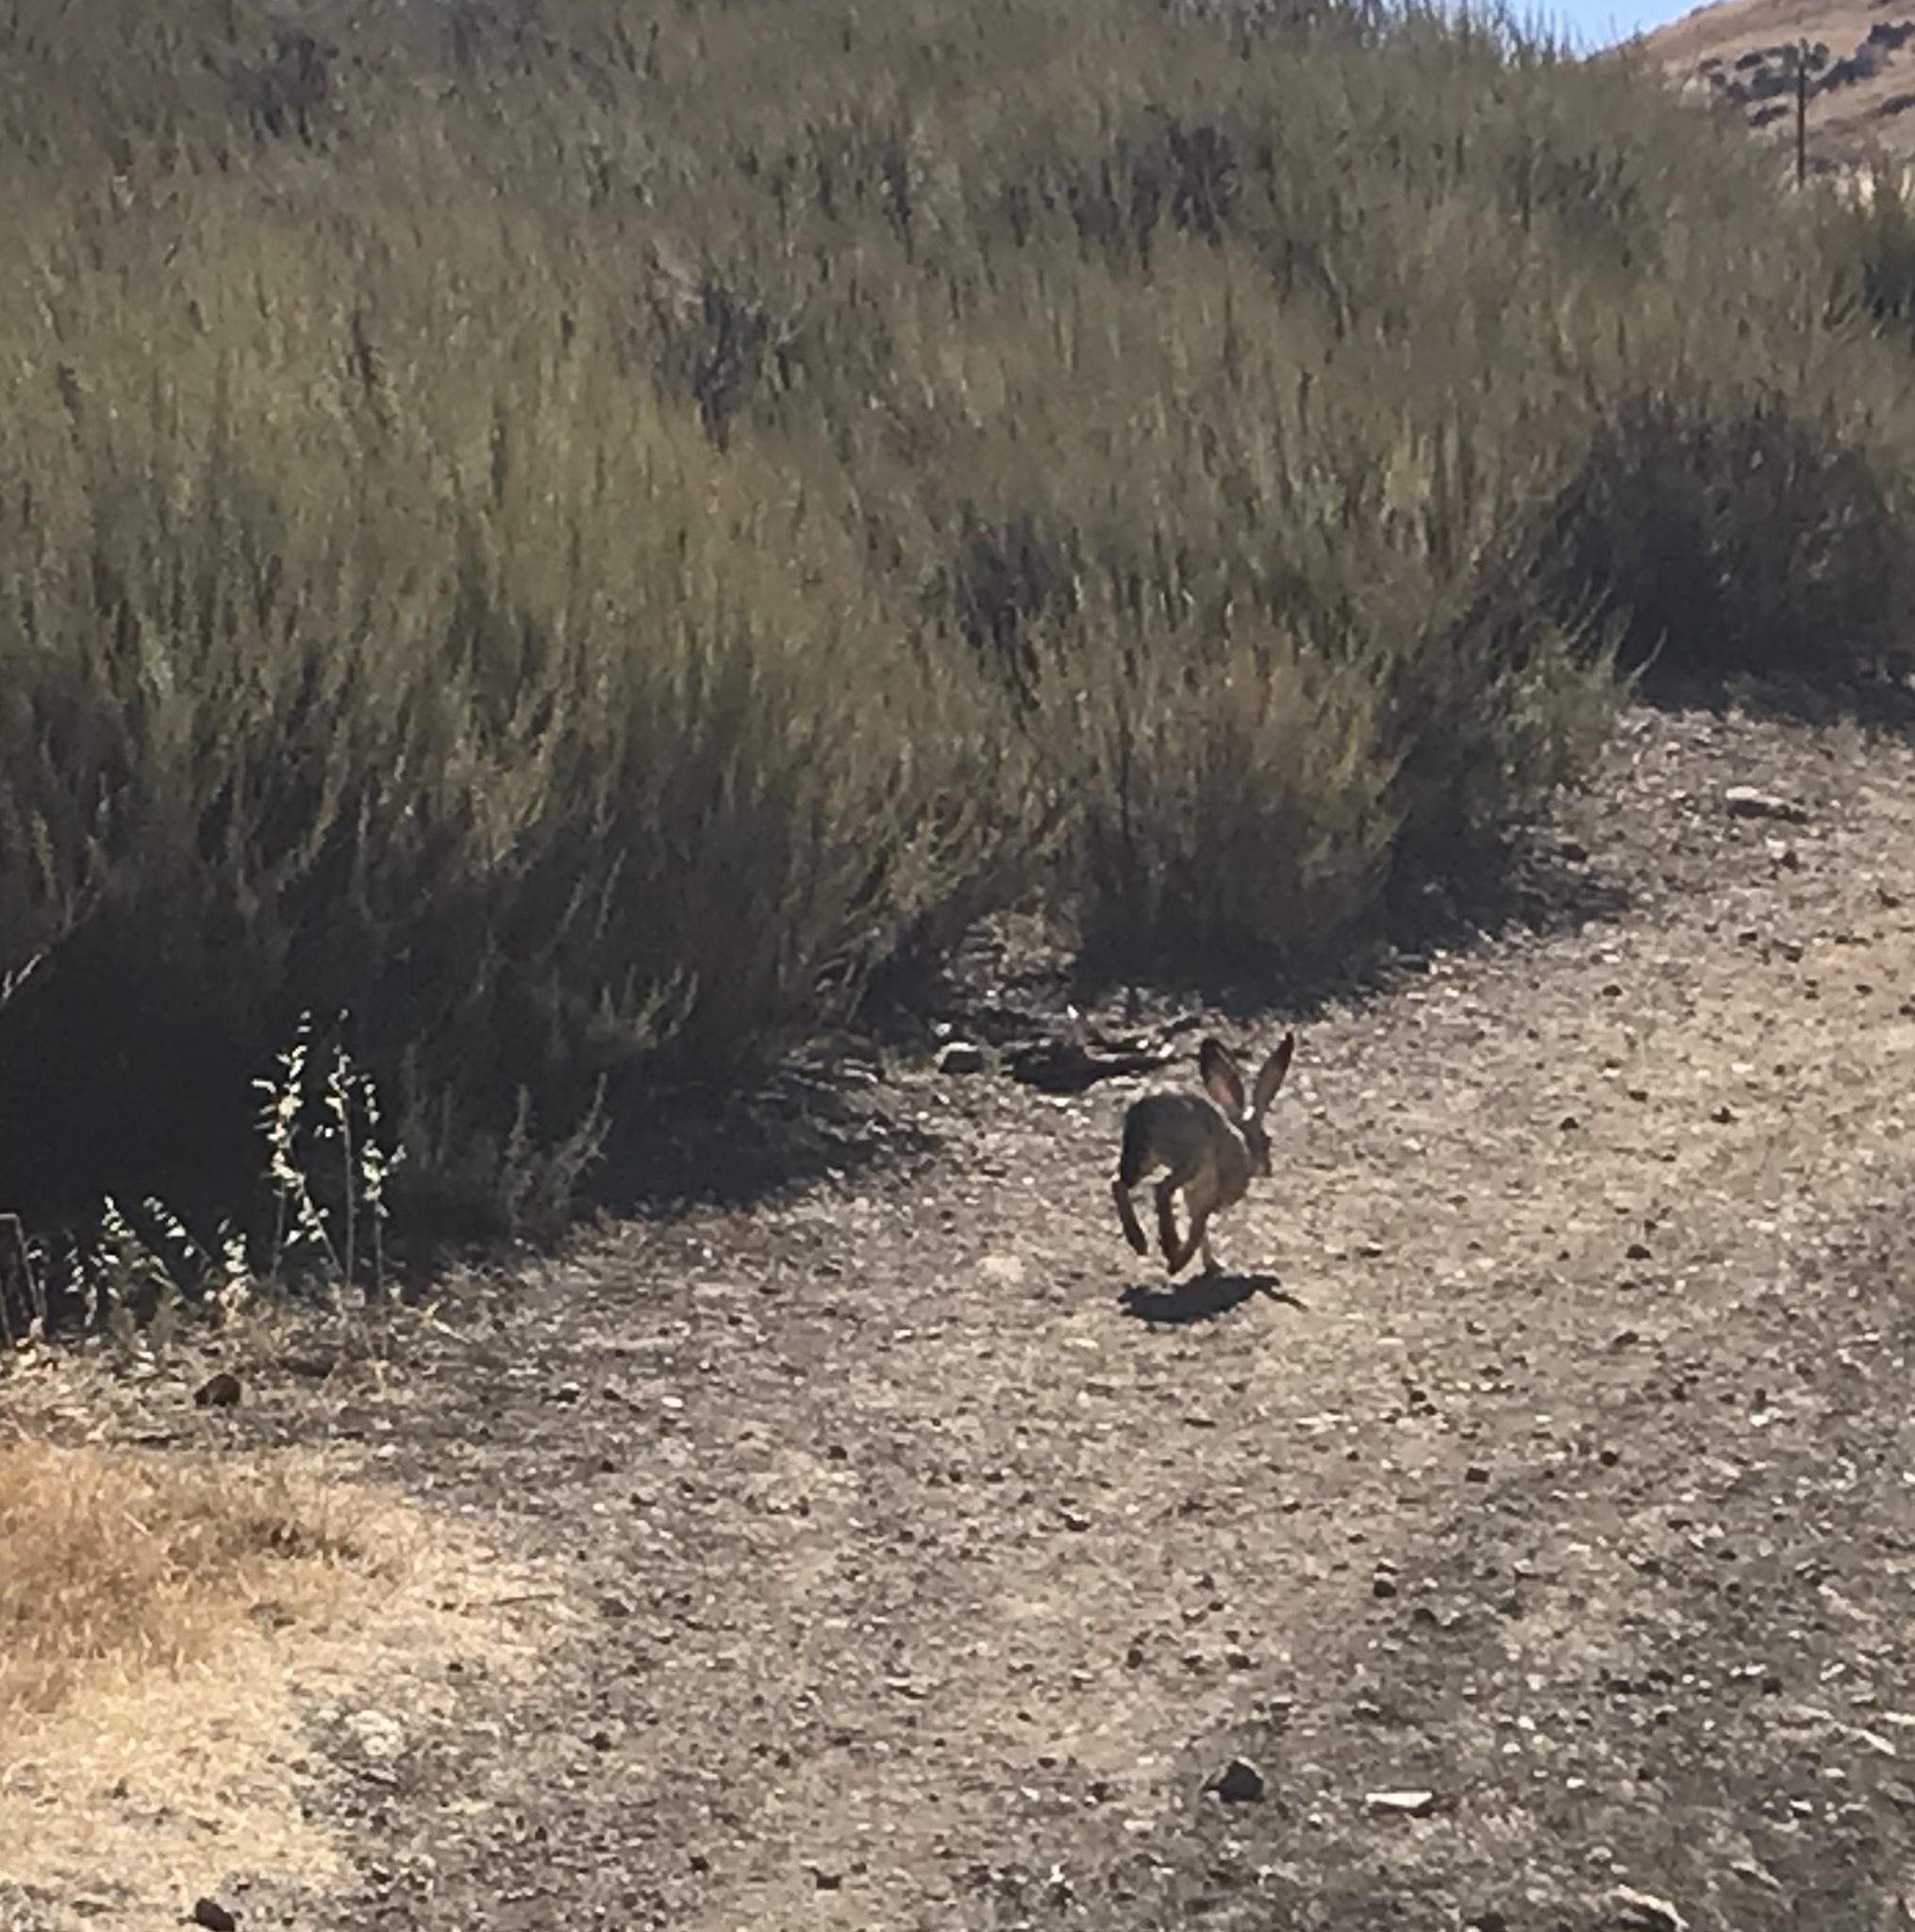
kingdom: Animalia
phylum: Chordata
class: Mammalia
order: Lagomorpha
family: Leporidae
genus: Lepus
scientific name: Lepus californicus
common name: Black-tailed jackrabbit
